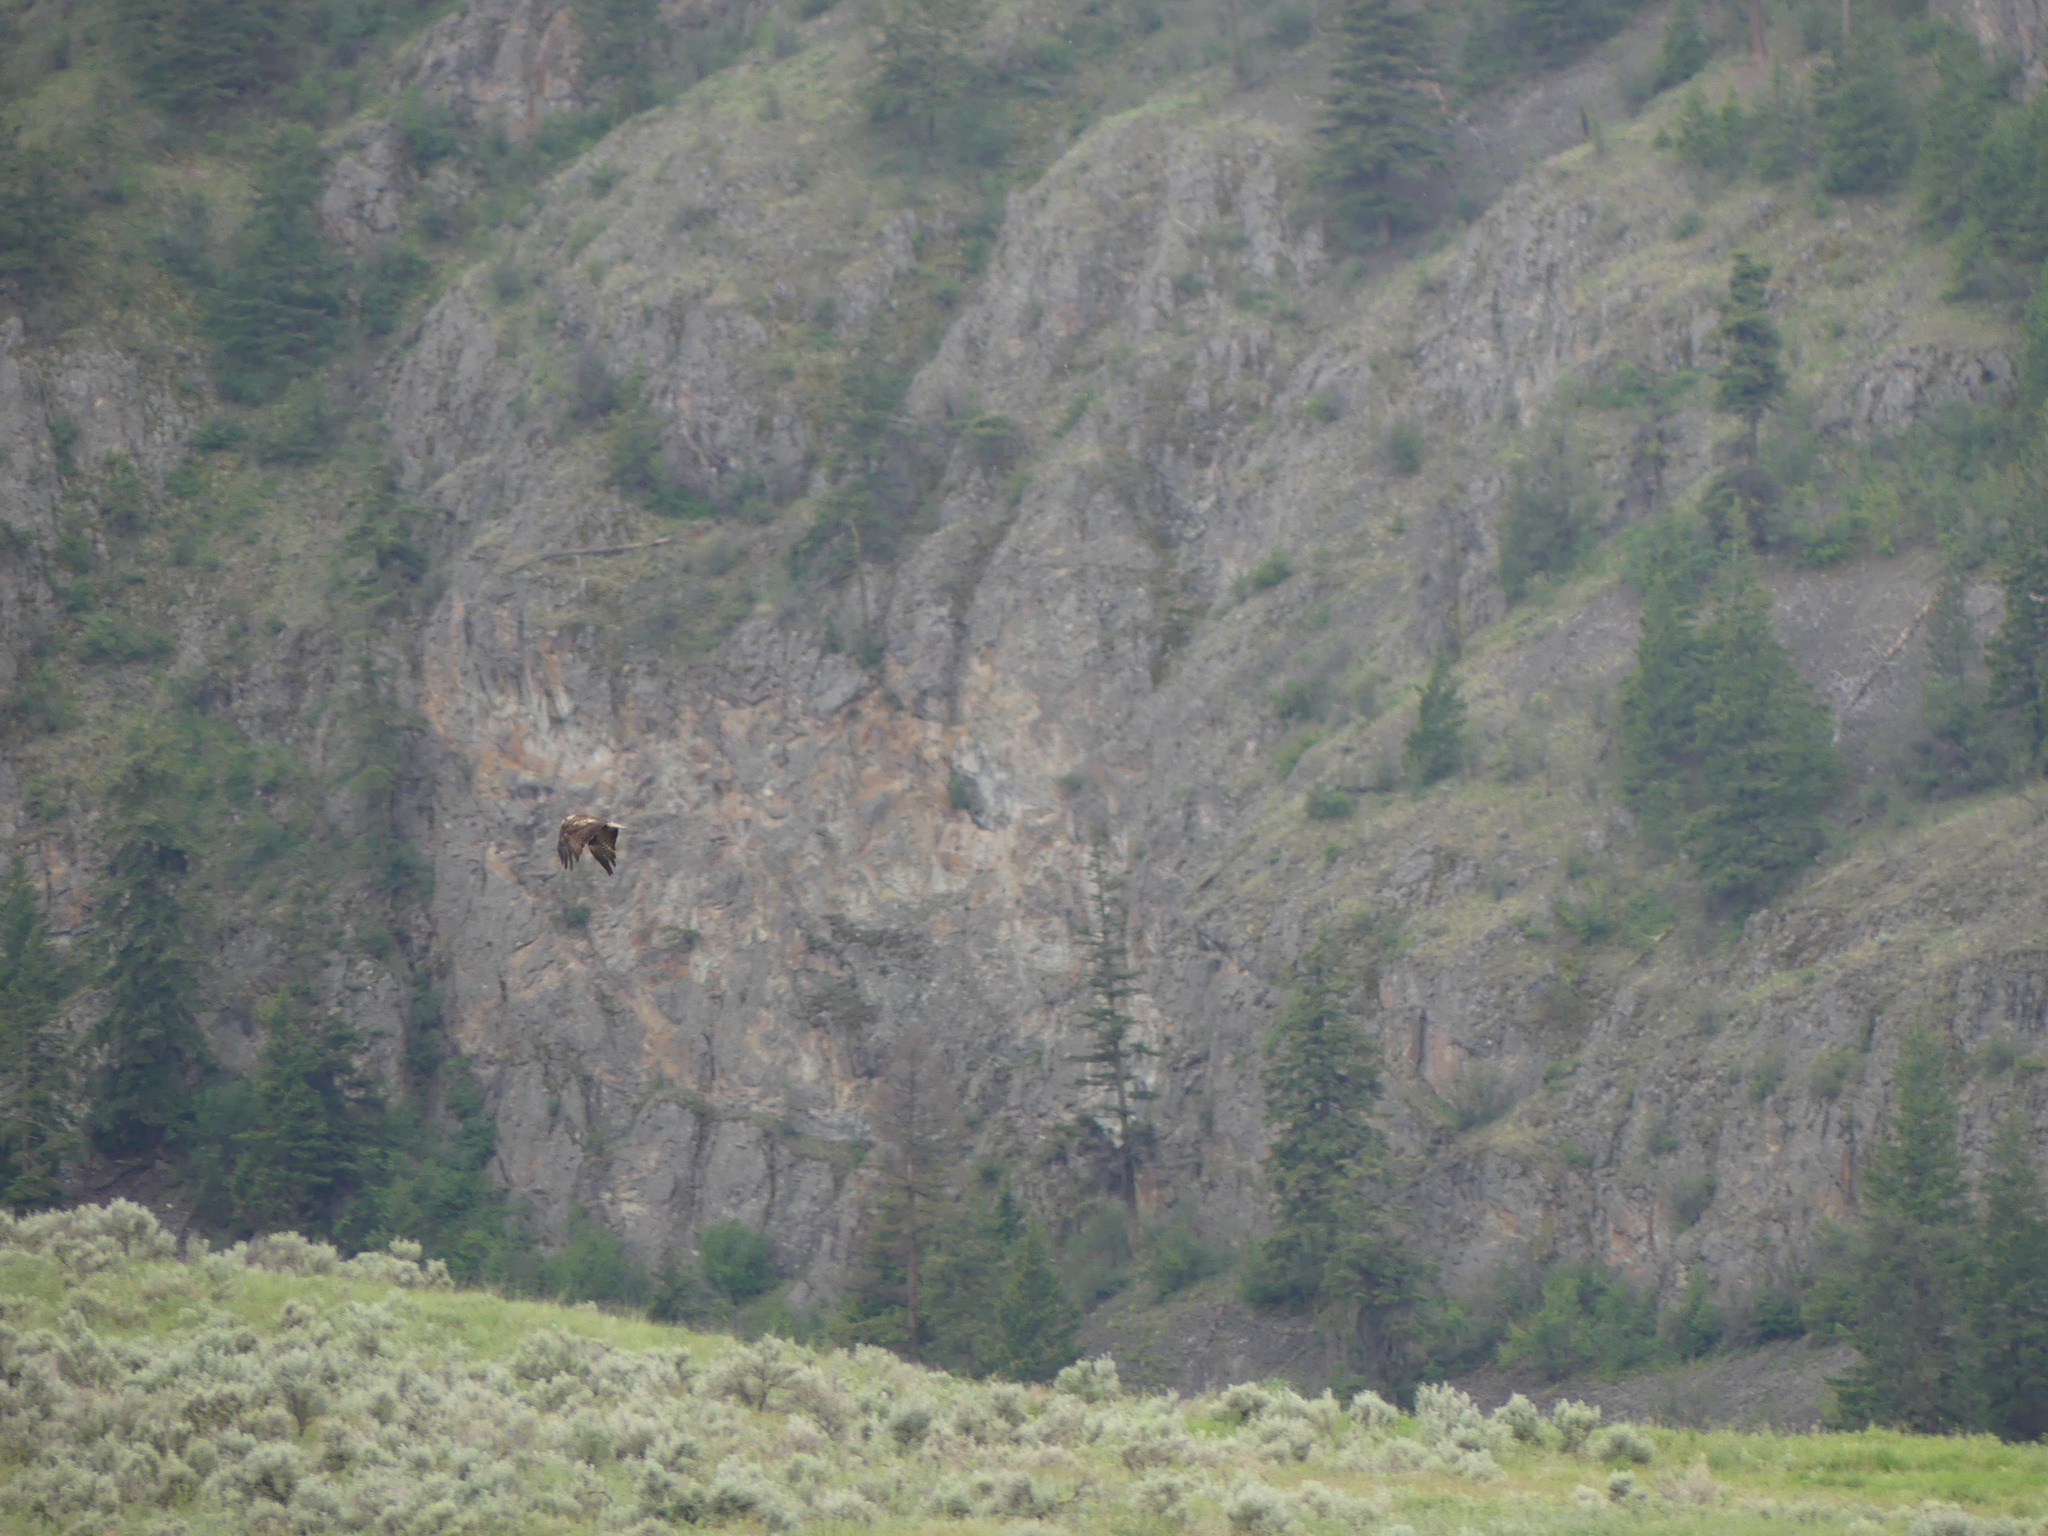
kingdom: Animalia
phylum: Chordata
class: Aves
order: Accipitriformes
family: Accipitridae
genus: Aquila
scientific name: Aquila chrysaetos
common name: Golden eagle
